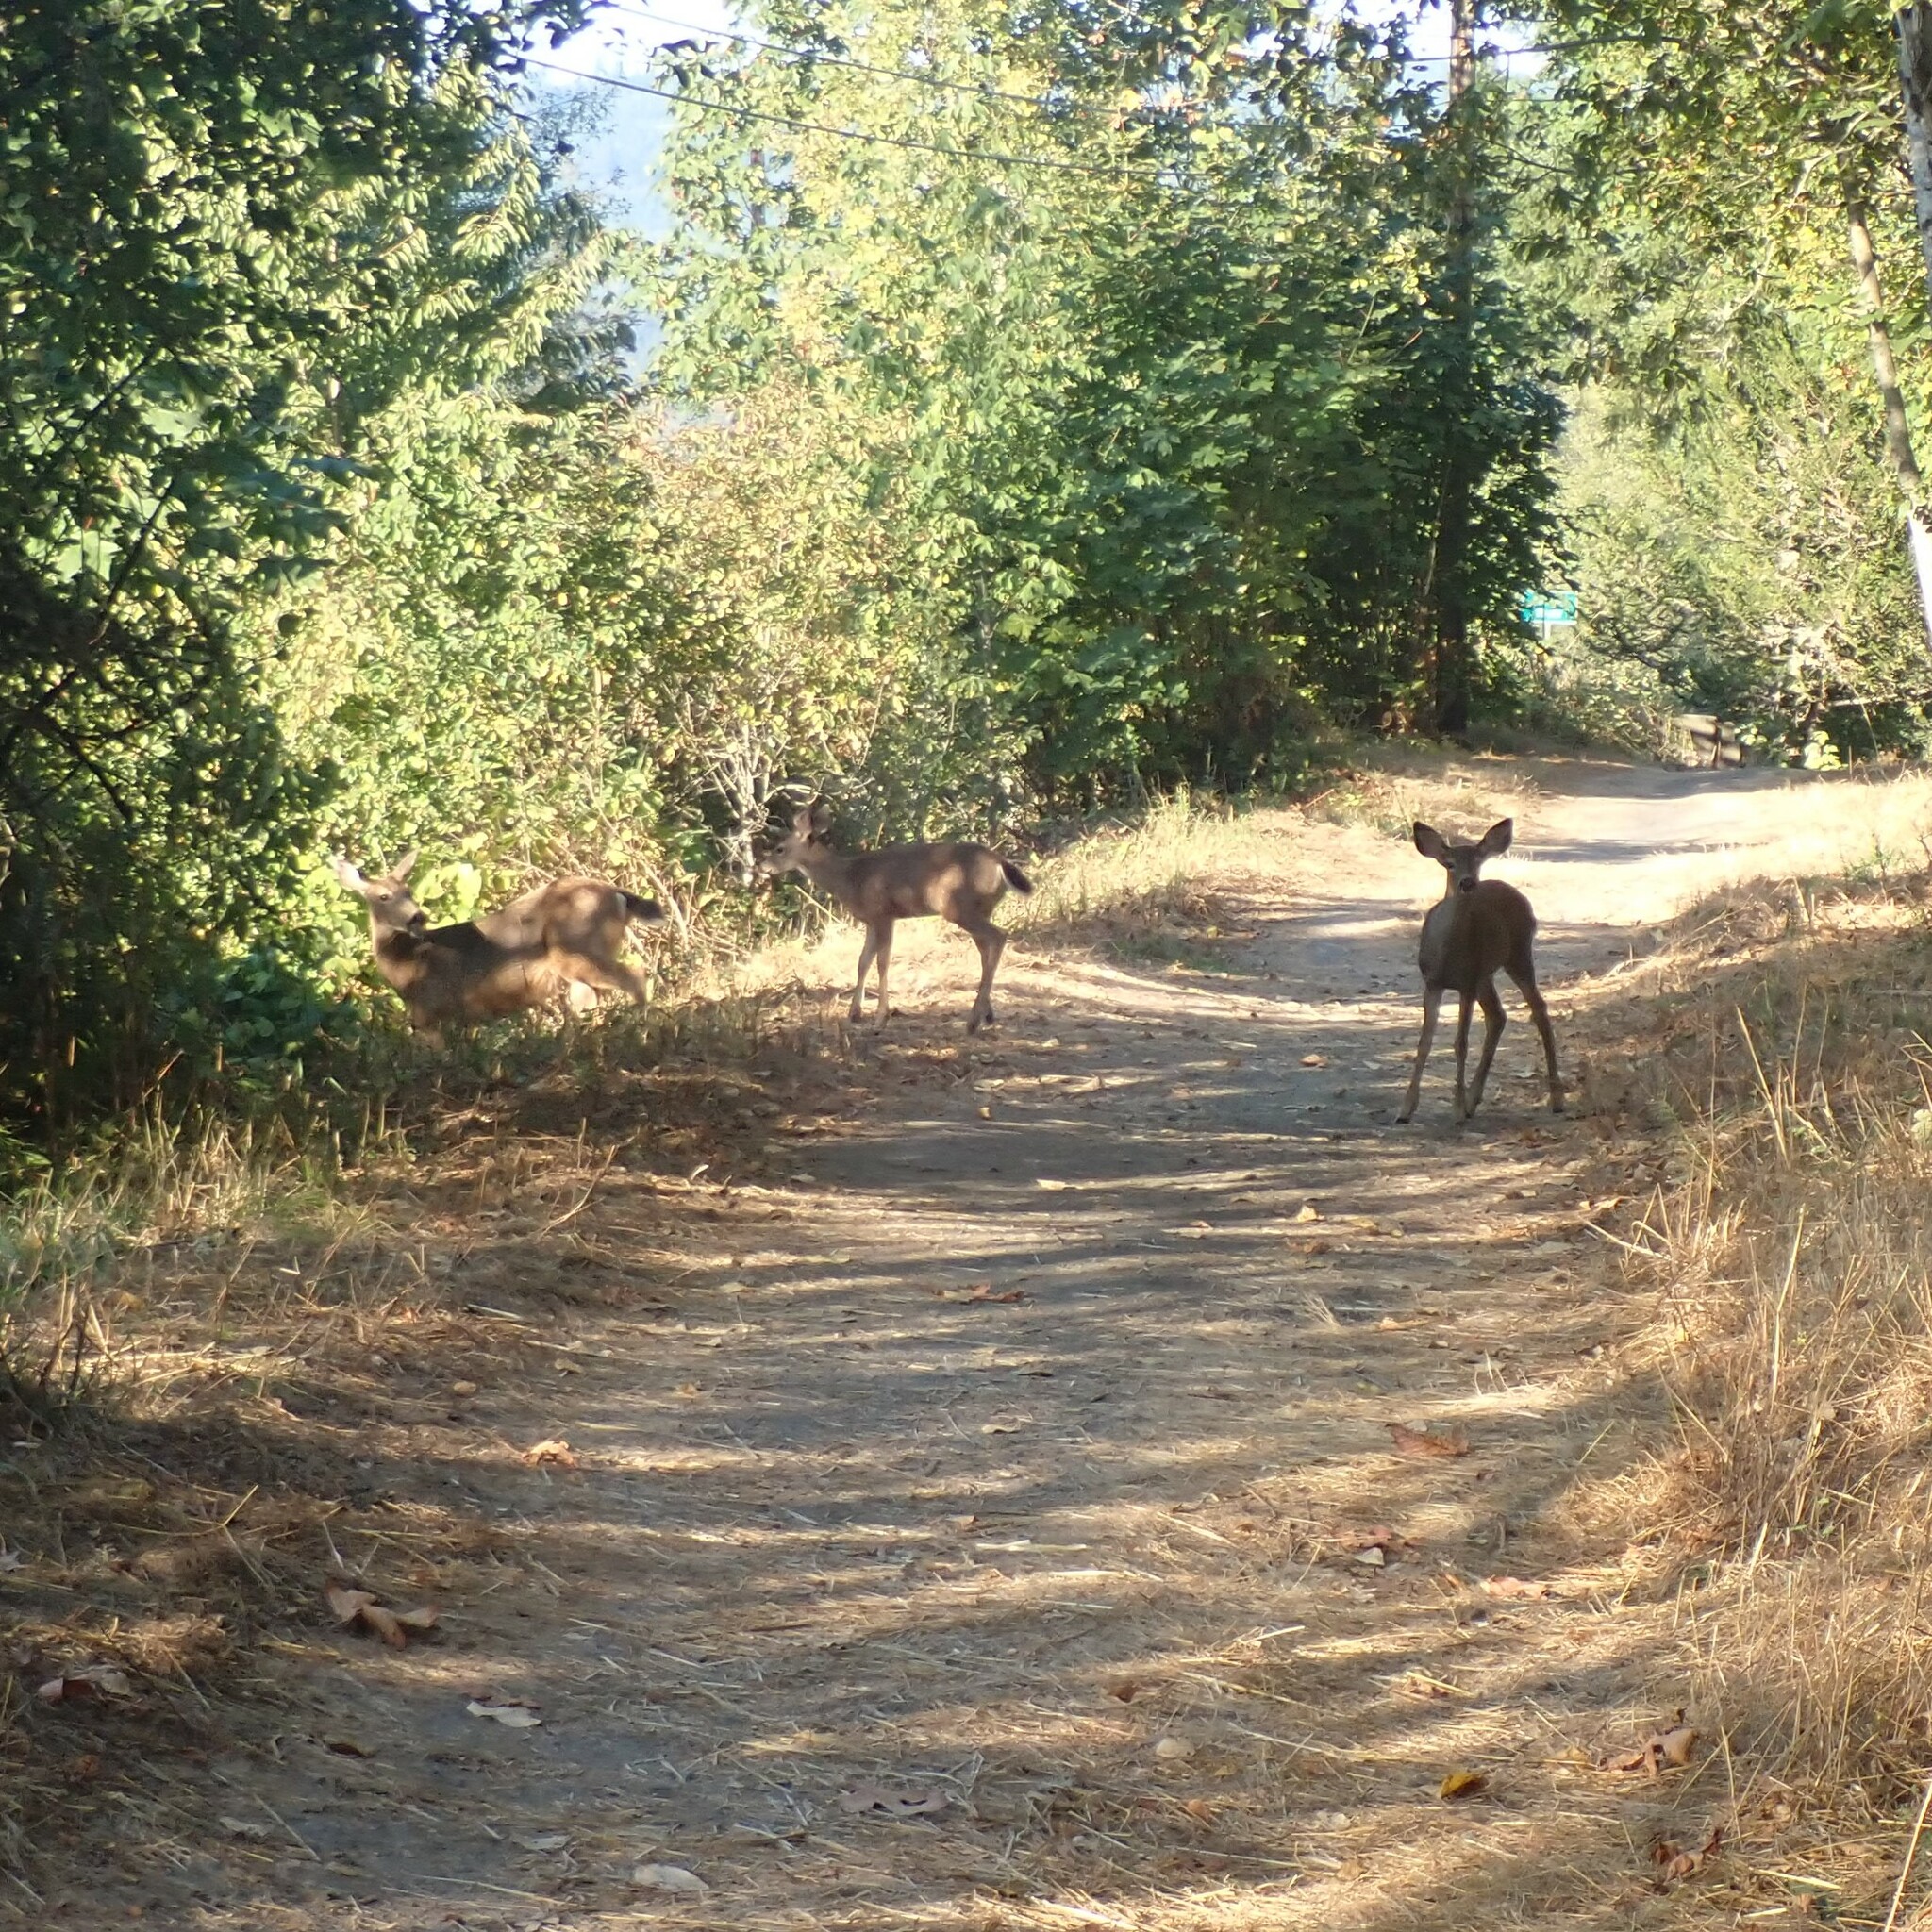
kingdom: Animalia
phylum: Chordata
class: Mammalia
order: Artiodactyla
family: Cervidae
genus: Odocoileus
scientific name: Odocoileus hemionus
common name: Mule deer
